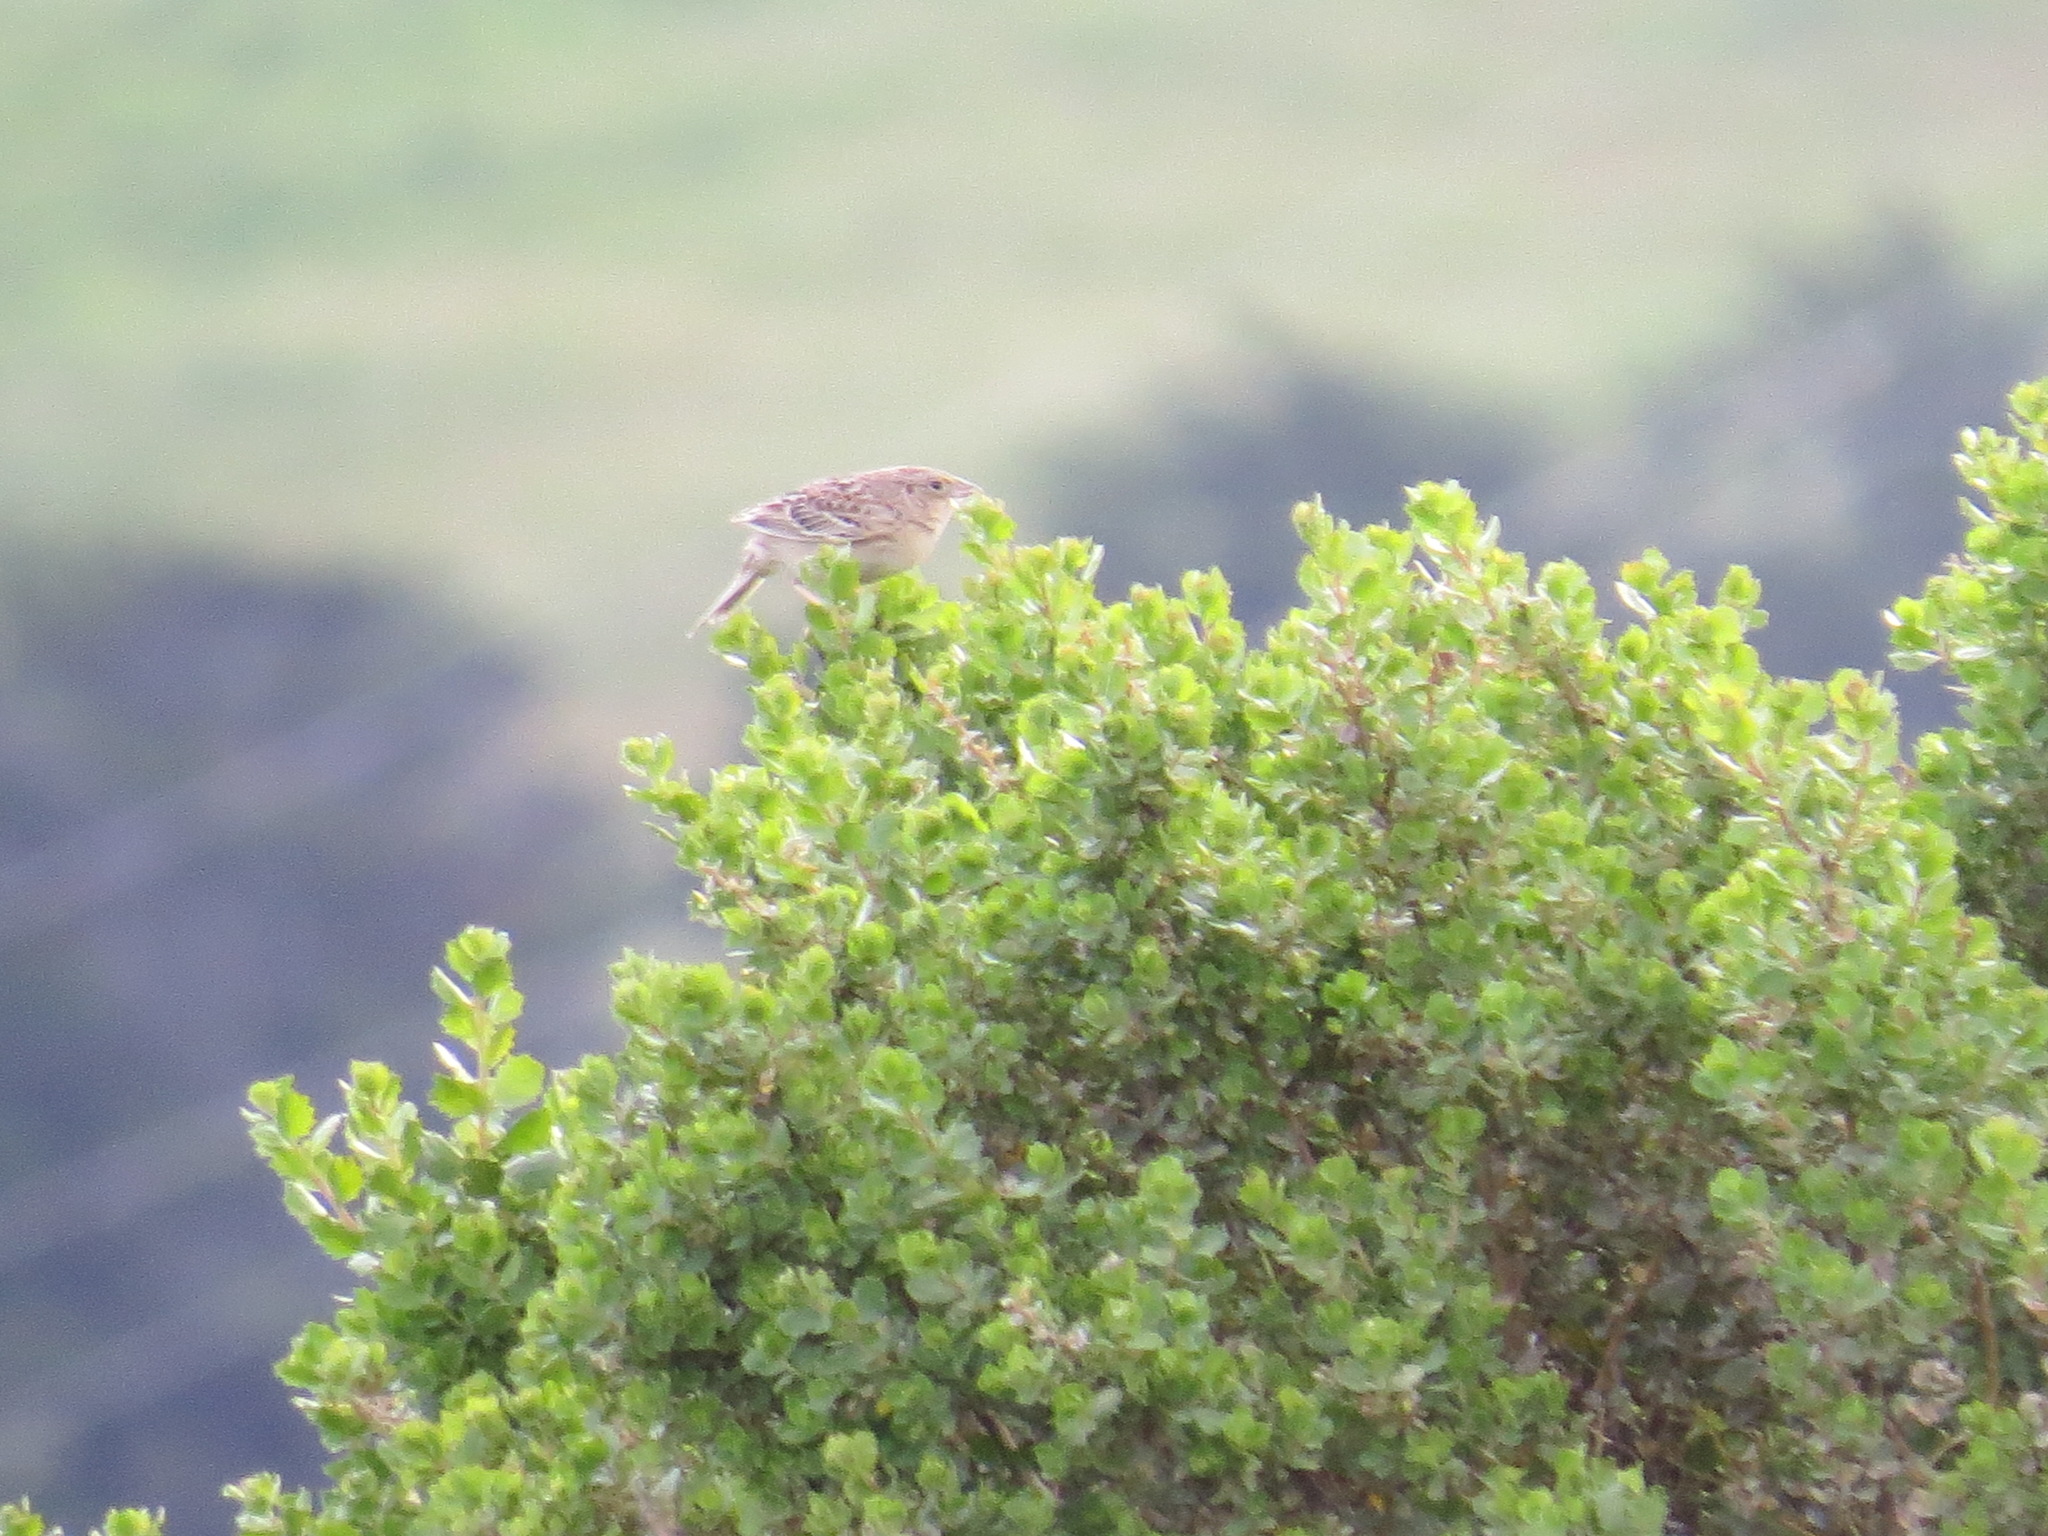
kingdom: Animalia
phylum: Chordata
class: Aves
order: Passeriformes
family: Passerellidae
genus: Ammodramus
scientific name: Ammodramus savannarum
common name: Grasshopper sparrow
